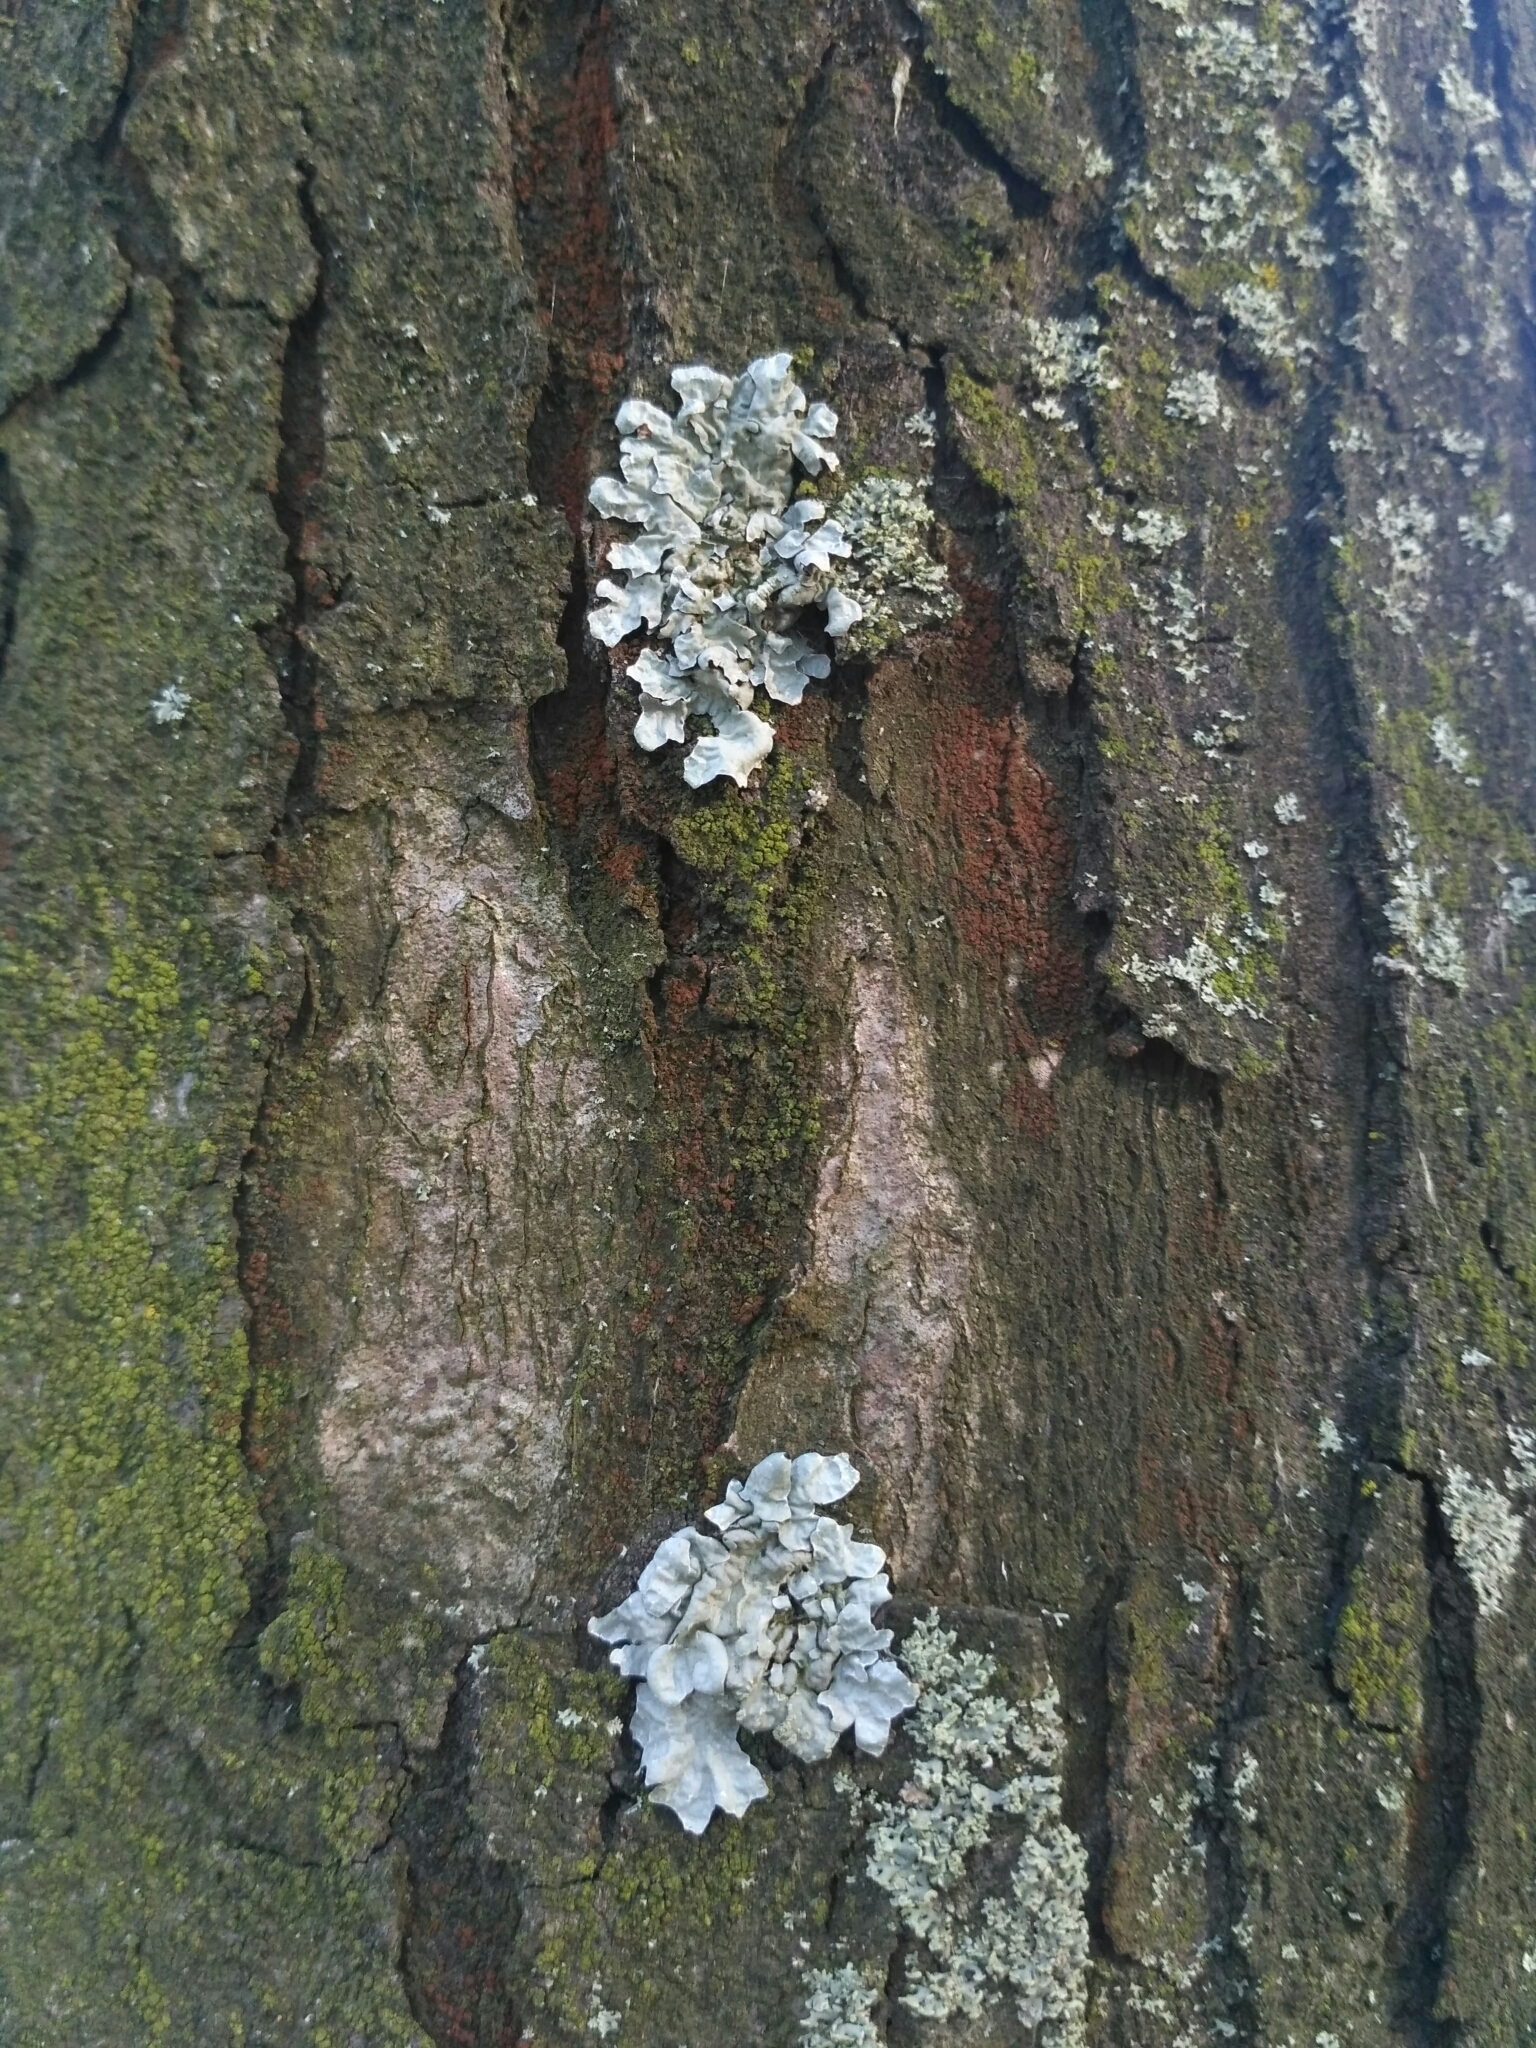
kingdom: Fungi
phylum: Ascomycota
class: Lecanoromycetes
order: Lecanorales
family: Parmeliaceae
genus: Parmelia
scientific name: Parmelia sulcata
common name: Netted shield lichen
